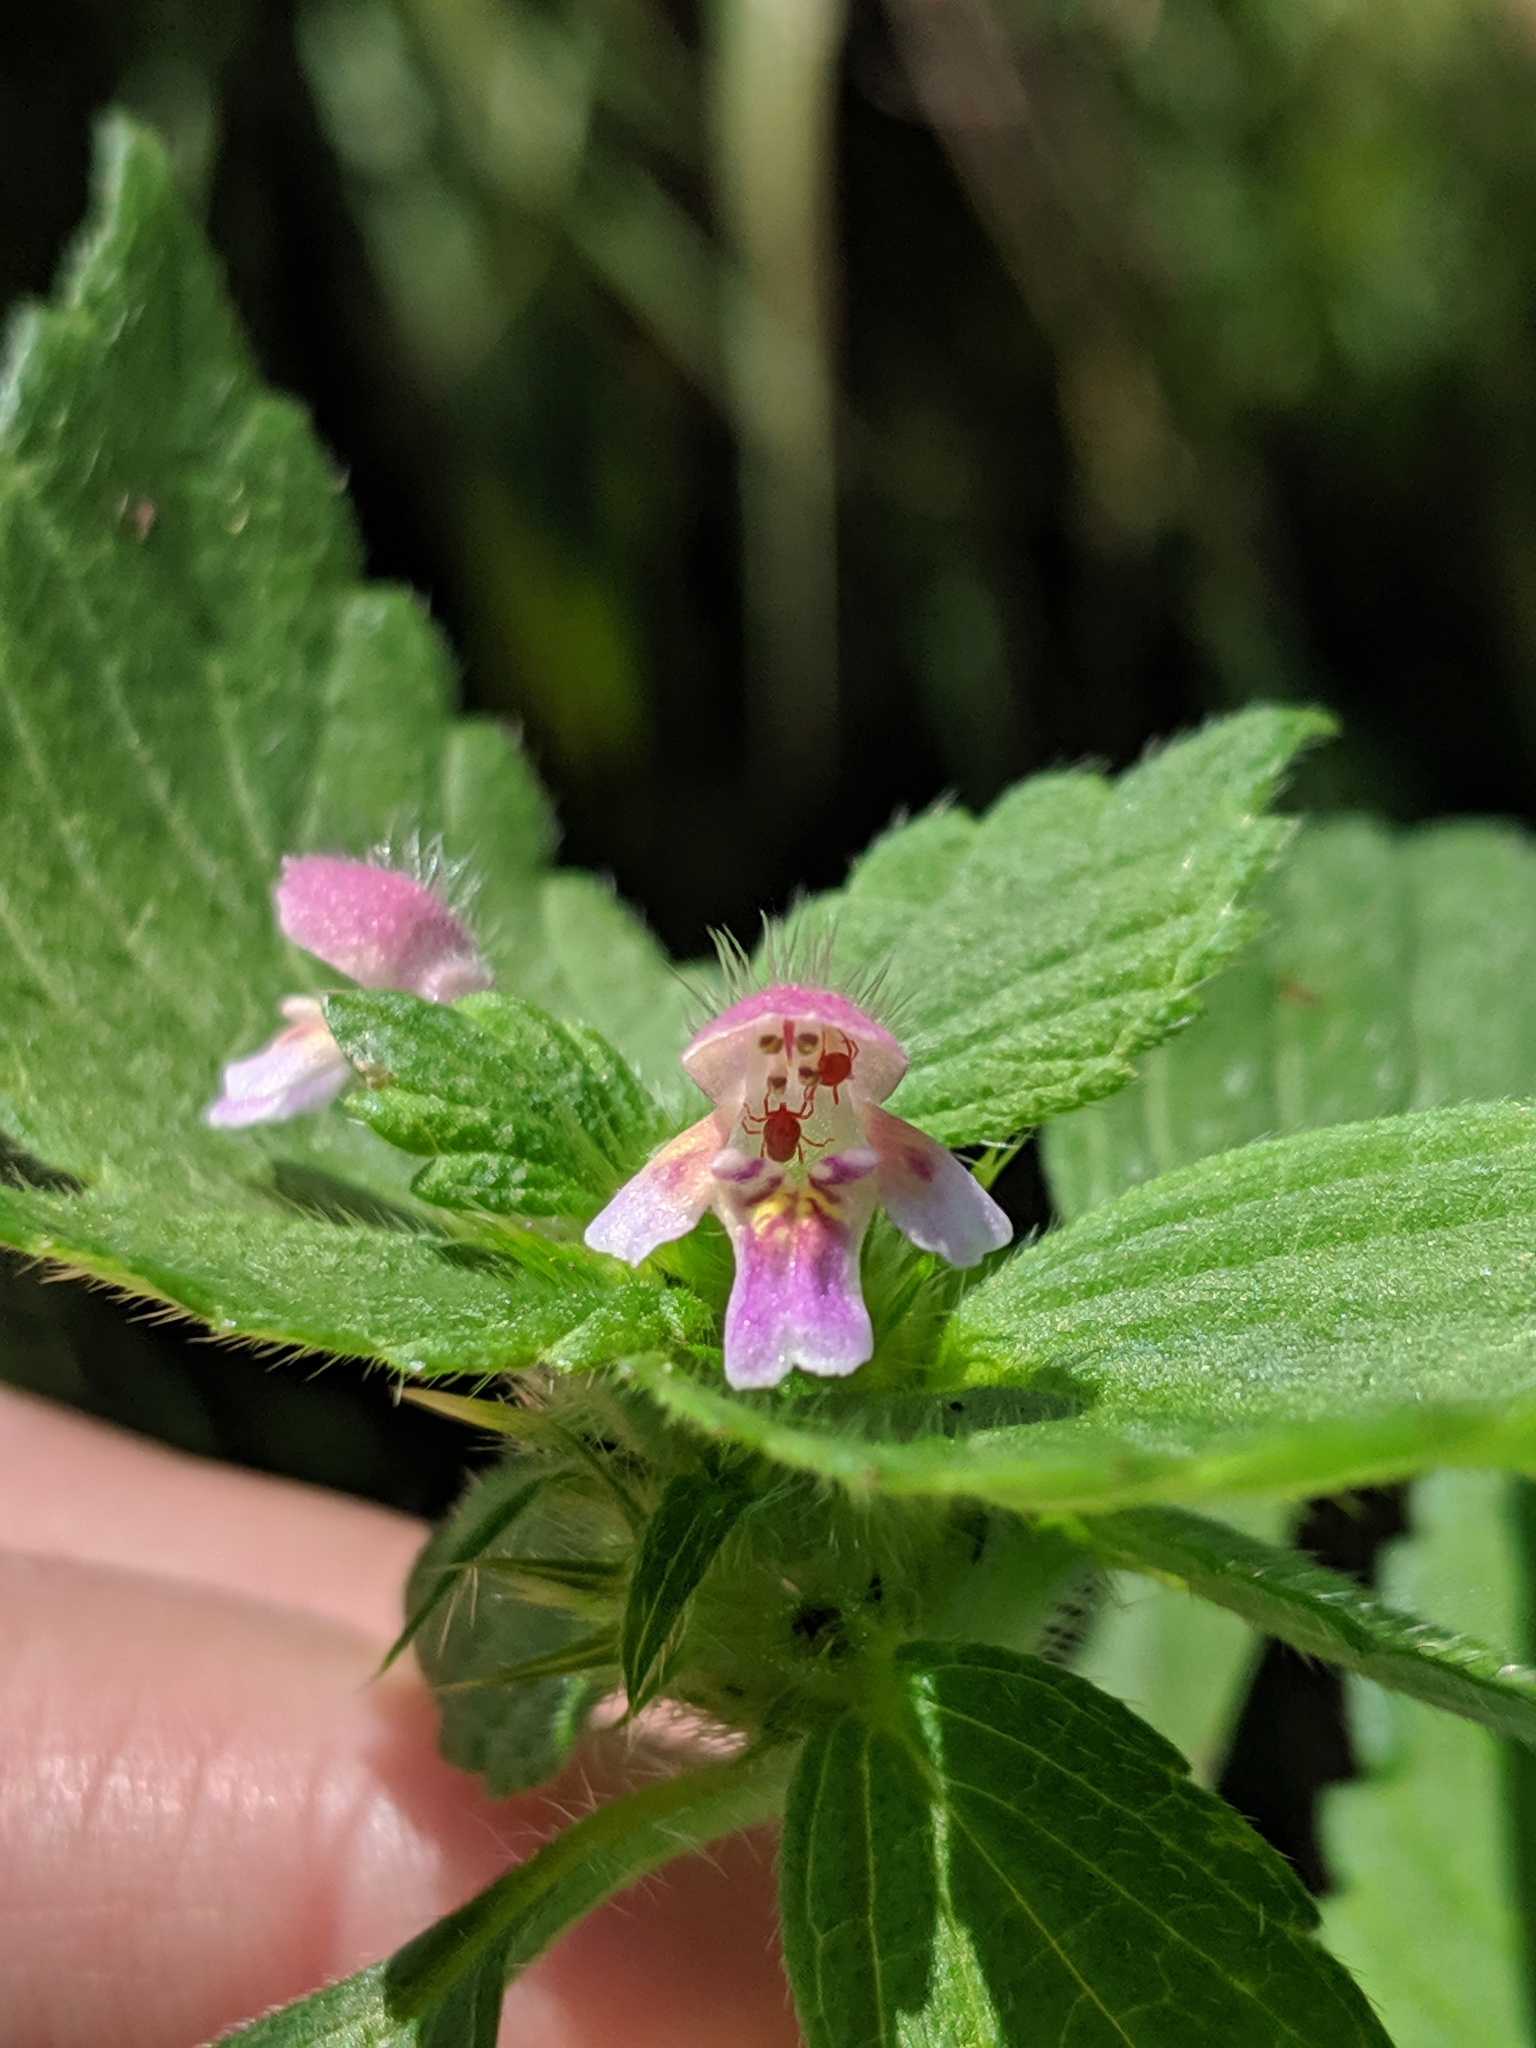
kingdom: Plantae
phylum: Tracheophyta
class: Magnoliopsida
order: Lamiales
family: Lamiaceae
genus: Galeopsis
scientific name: Galeopsis bifida
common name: Bifid hemp-nettle
